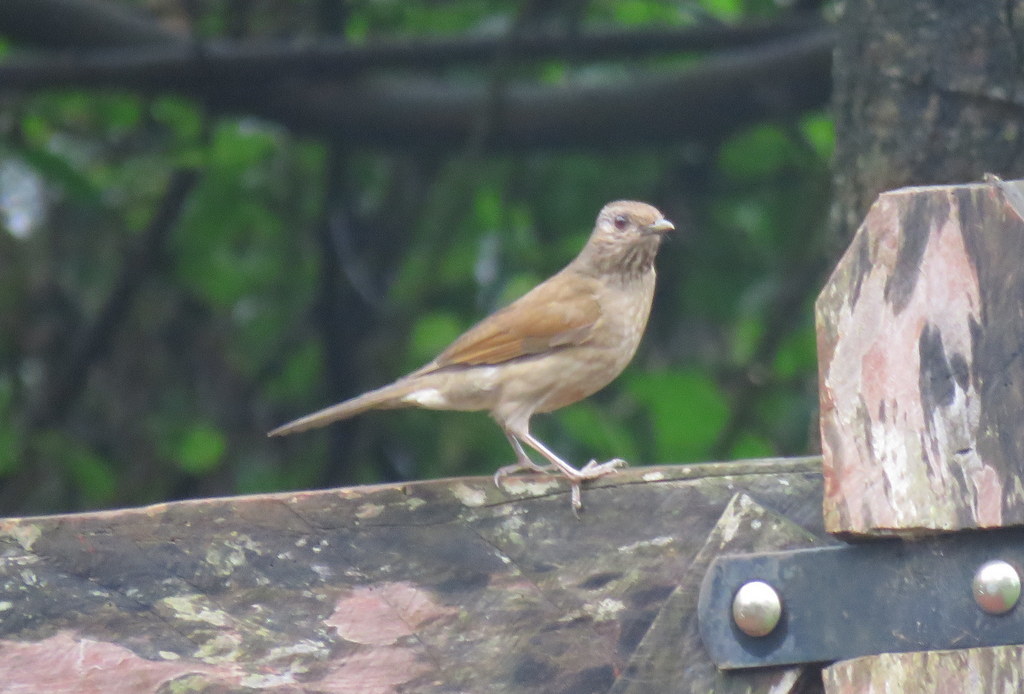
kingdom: Animalia
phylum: Chordata
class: Aves
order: Passeriformes
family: Turdidae
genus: Turdus
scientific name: Turdus leucomelas
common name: Pale-breasted thrush
